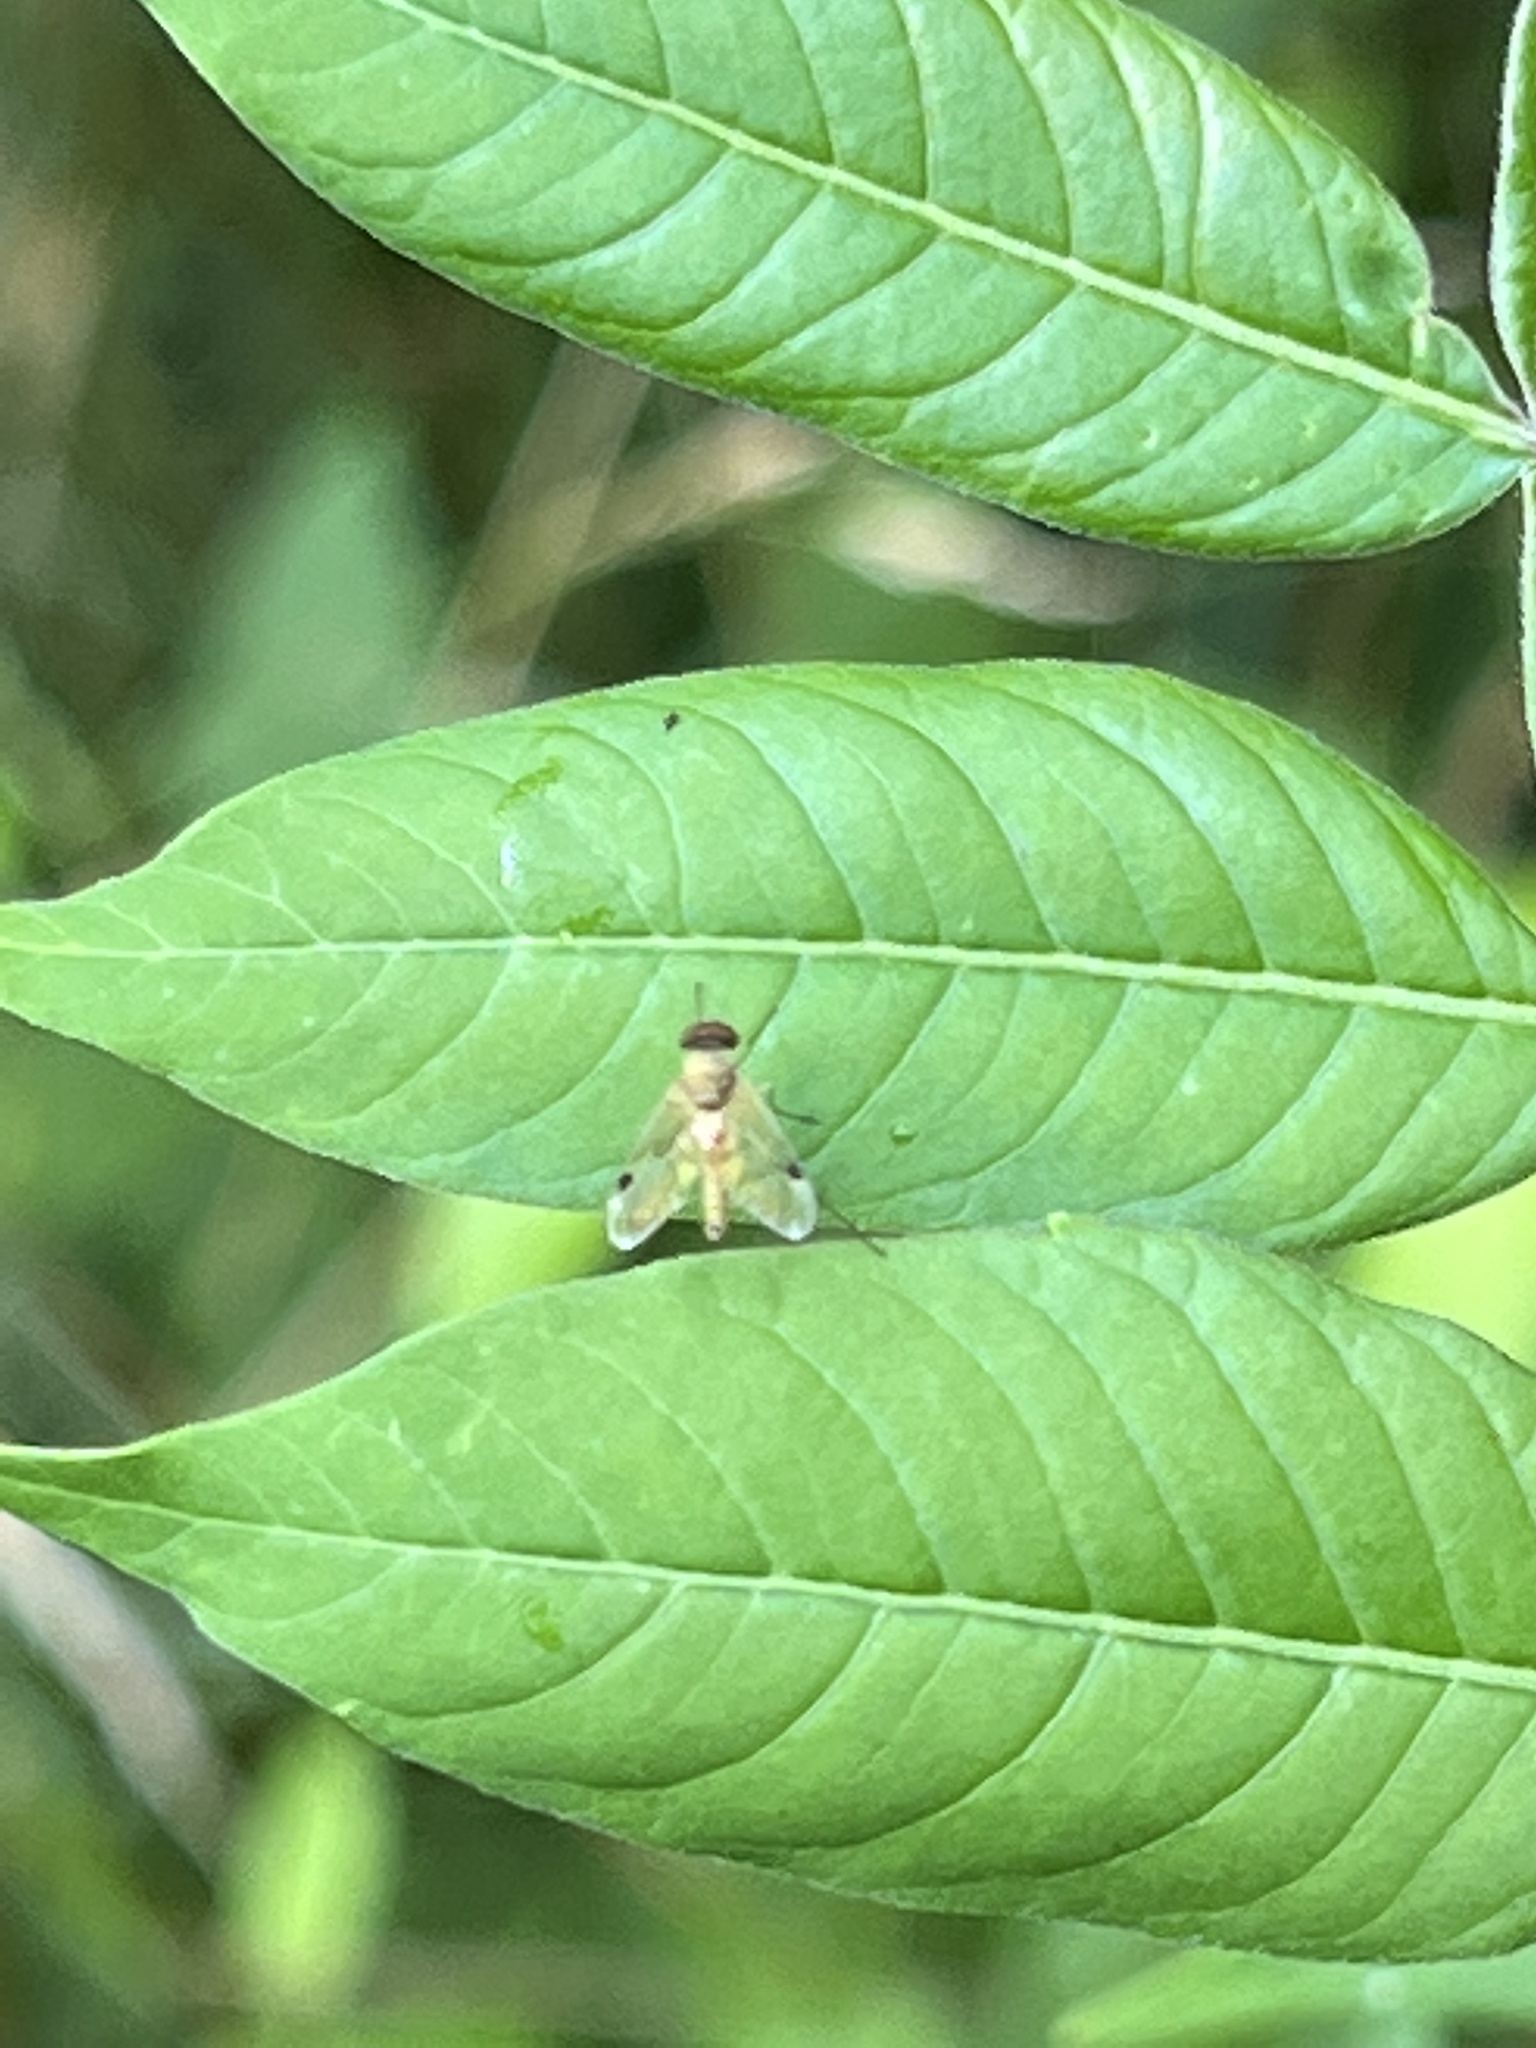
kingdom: Animalia
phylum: Arthropoda
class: Insecta
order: Diptera
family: Rhagionidae
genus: Chrysopilus
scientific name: Chrysopilus modestus
